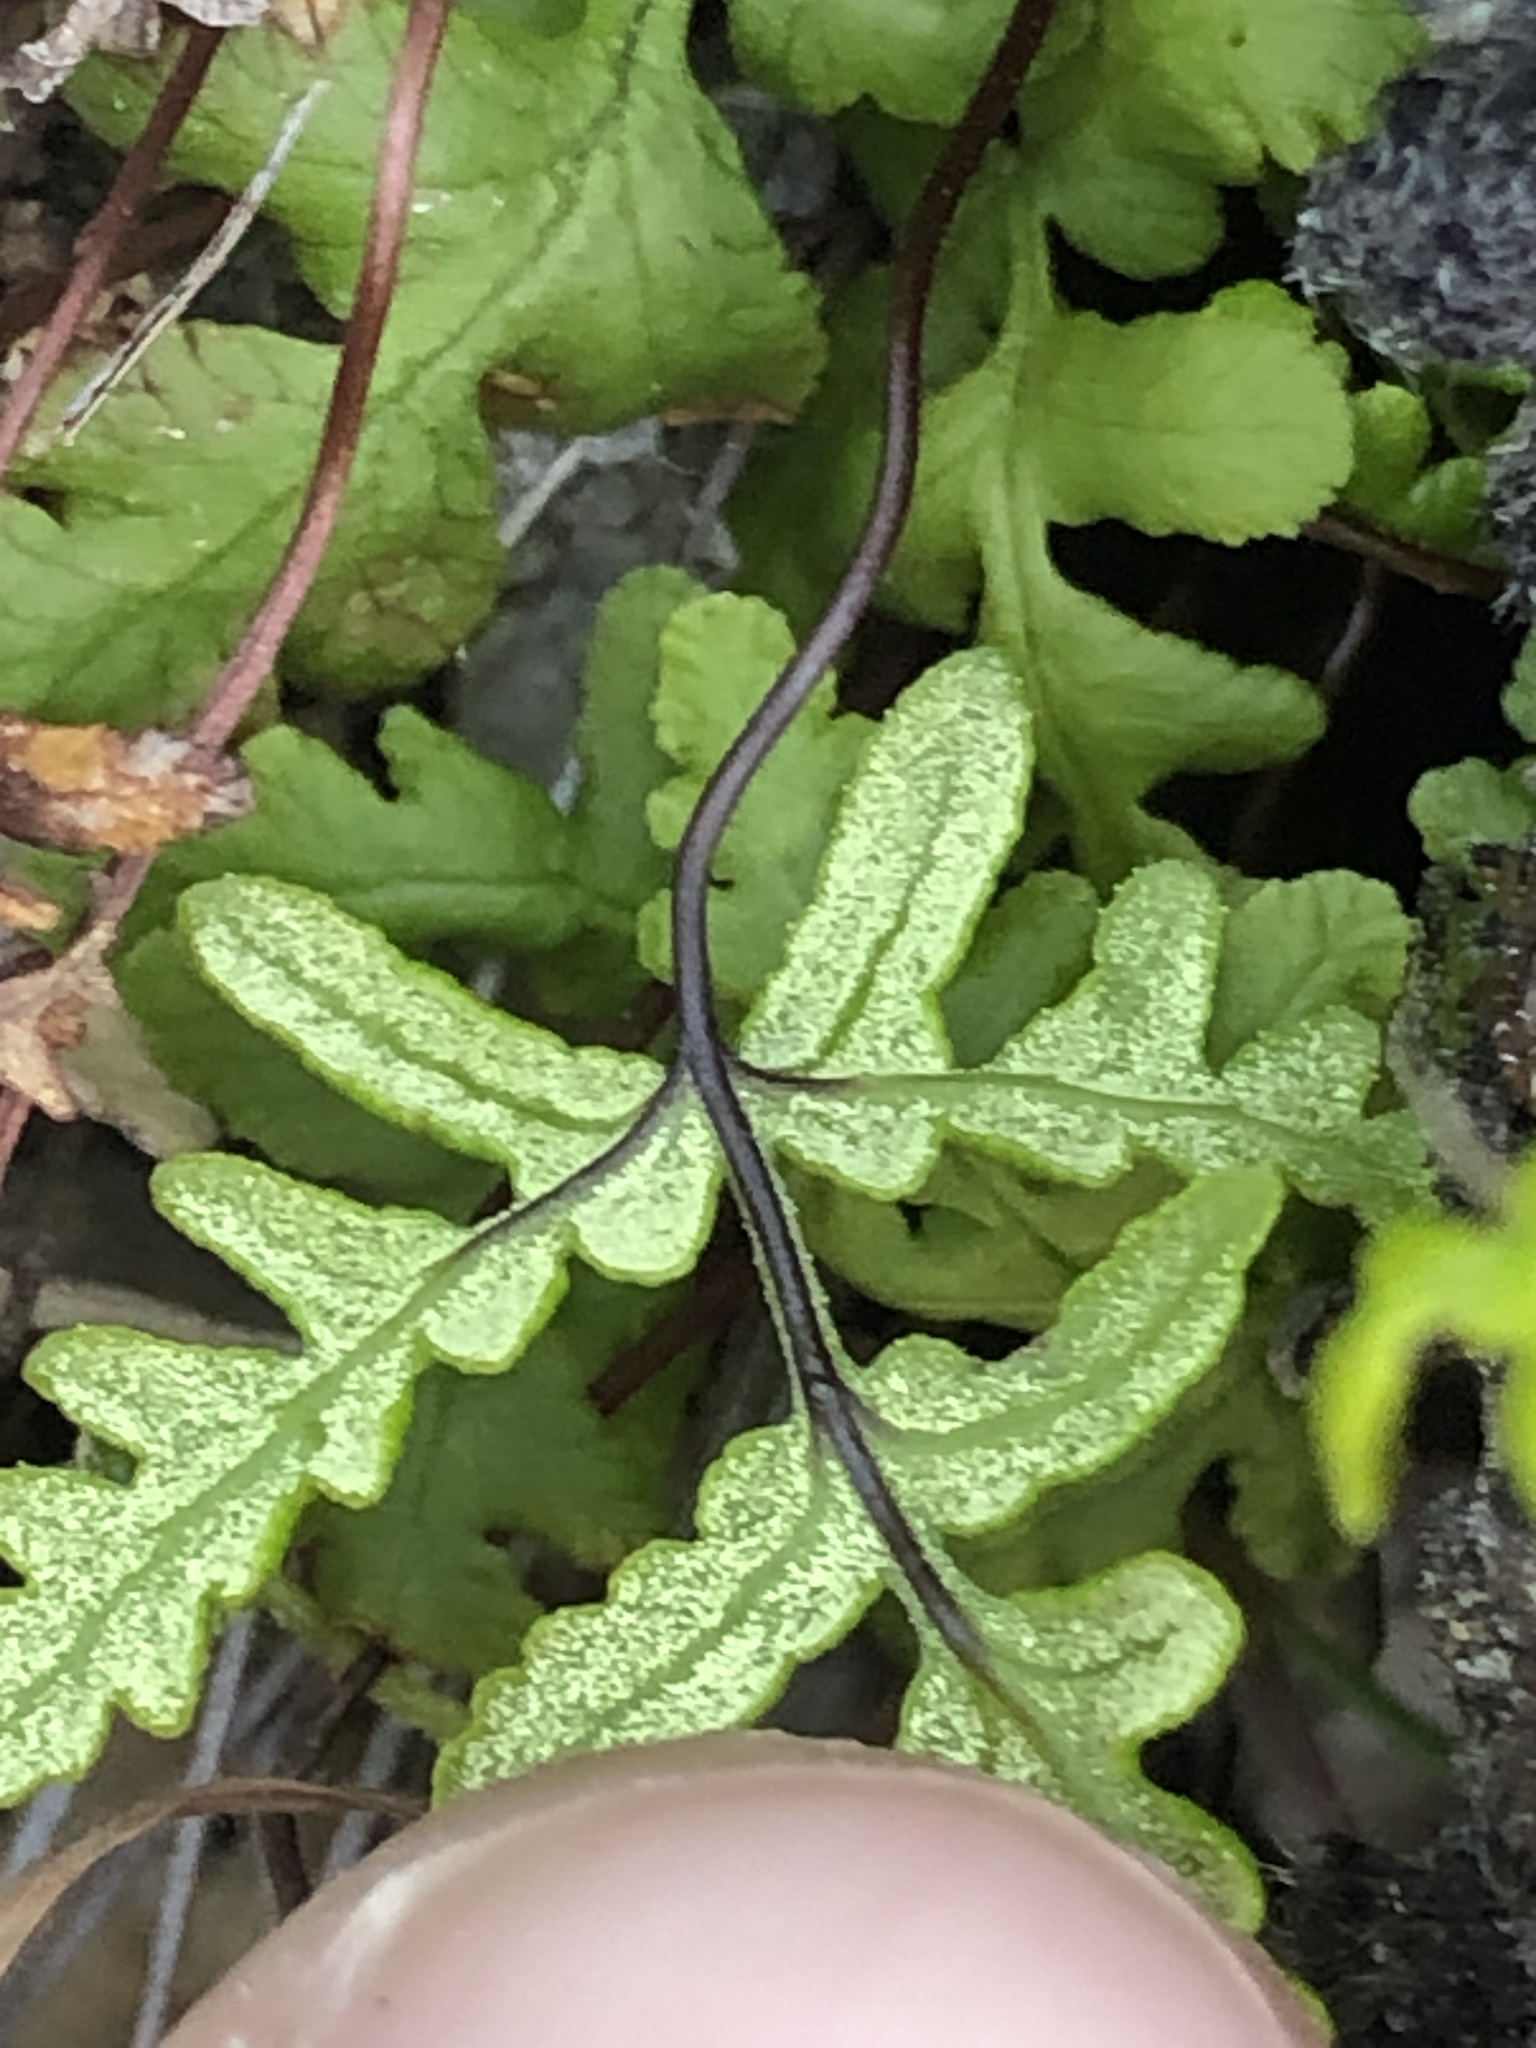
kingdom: Plantae
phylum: Tracheophyta
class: Polypodiopsida
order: Polypodiales
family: Pteridaceae
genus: Pentagramma
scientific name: Pentagramma triangularis
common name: Gold fern
